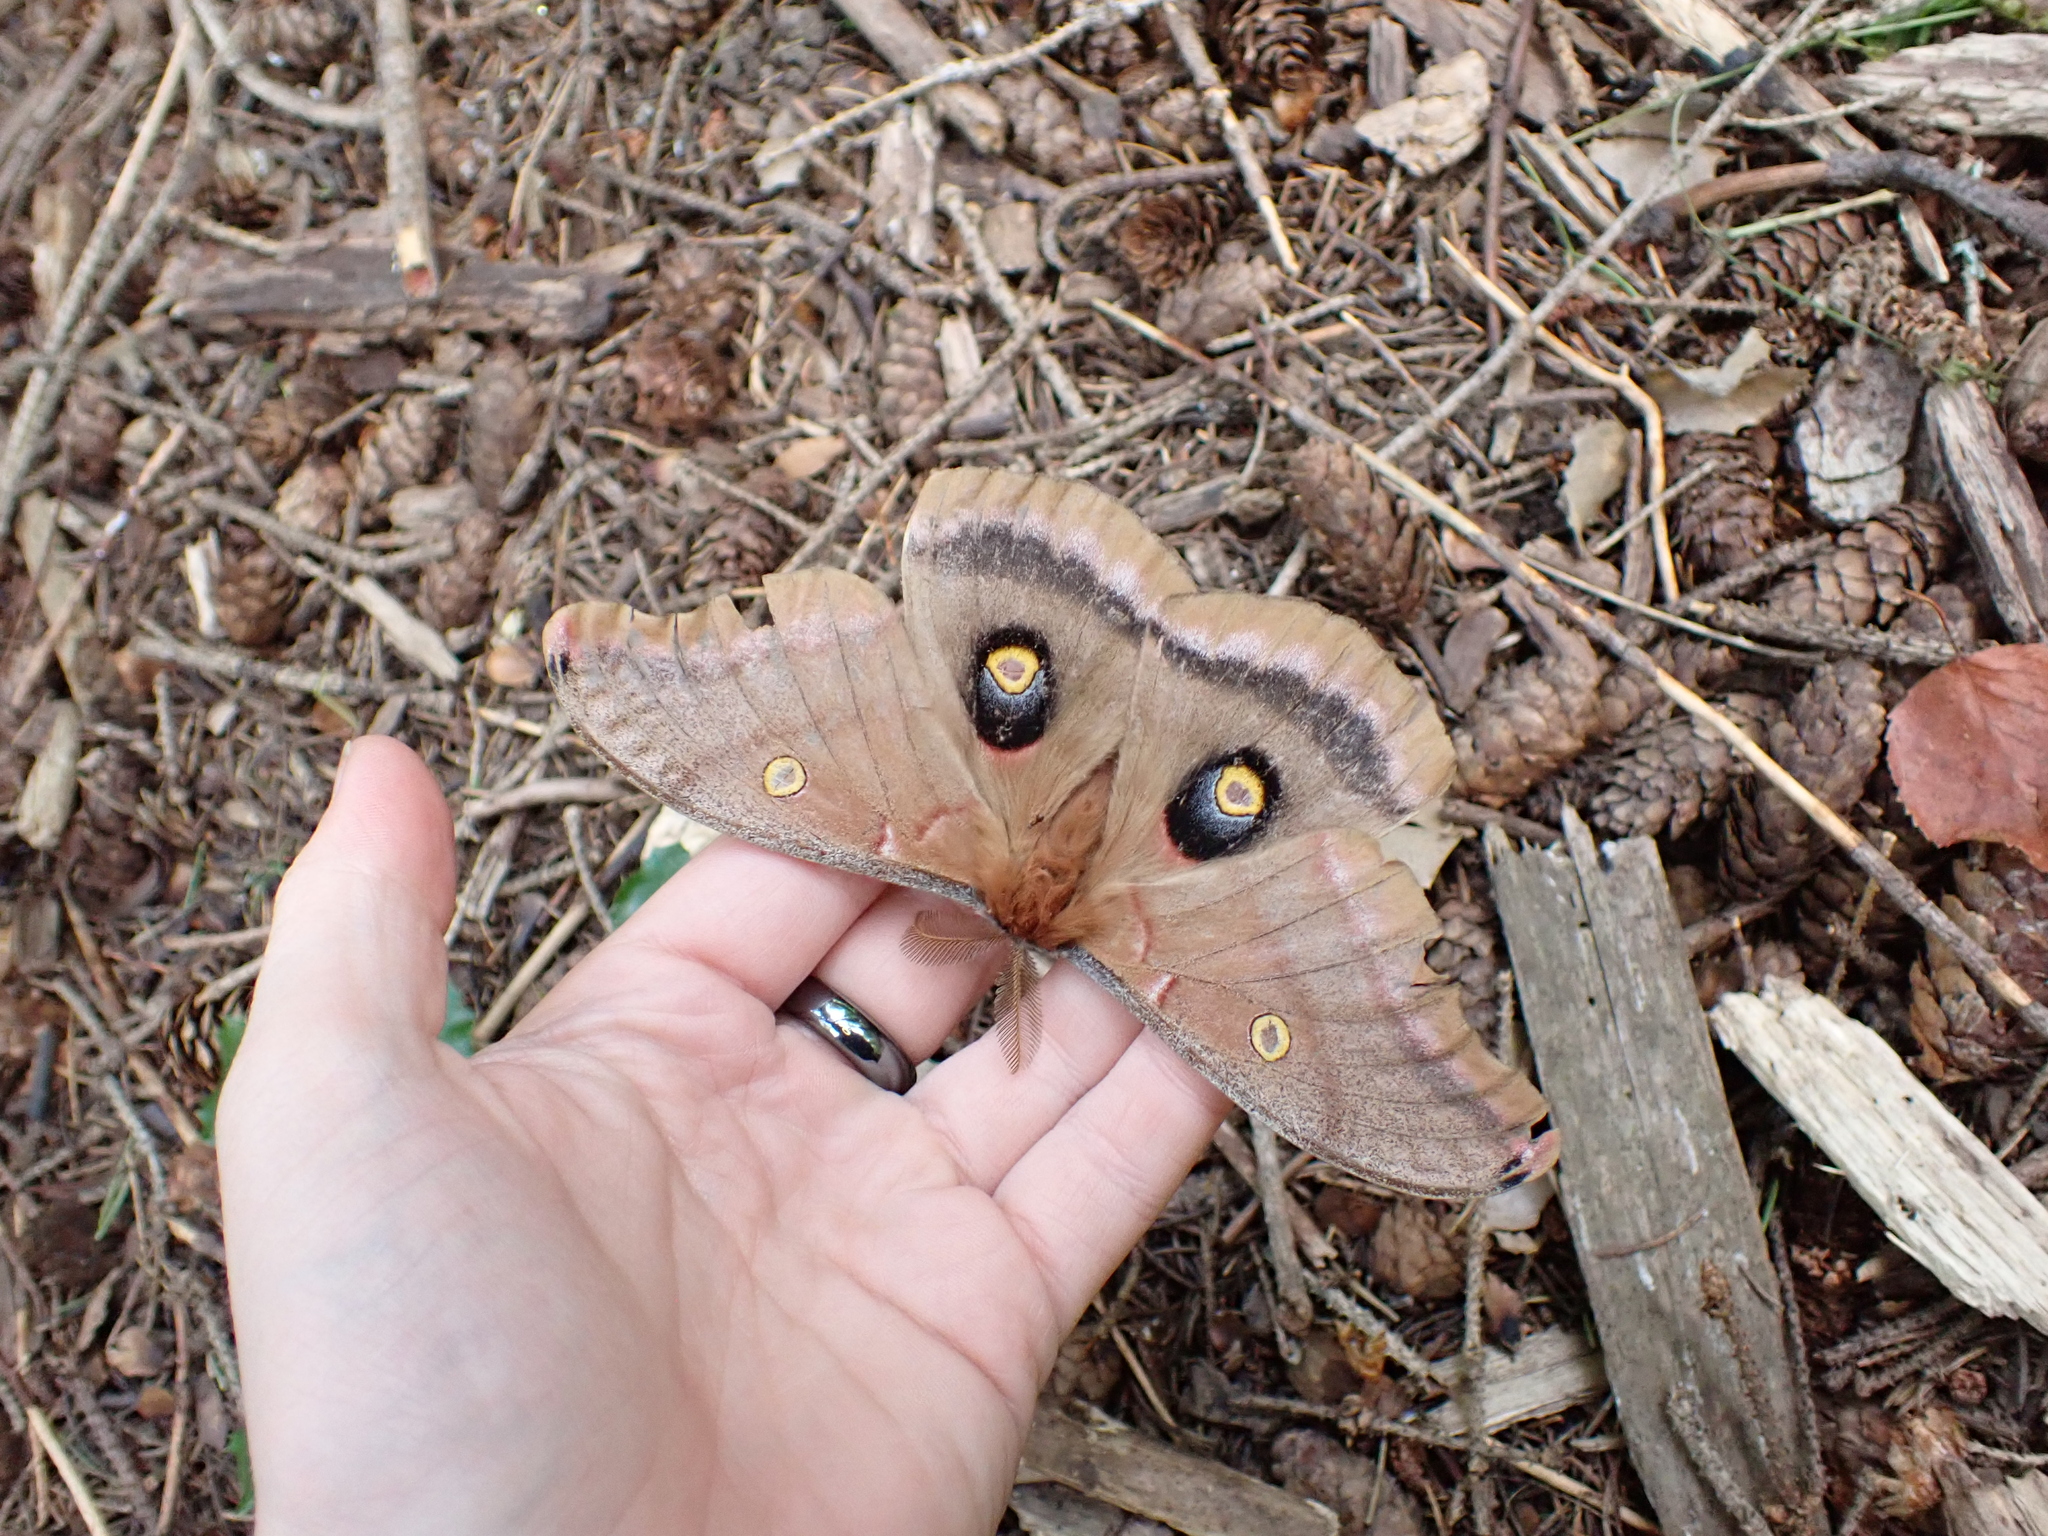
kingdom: Animalia
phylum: Arthropoda
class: Insecta
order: Lepidoptera
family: Saturniidae
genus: Antheraea
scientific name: Antheraea polyphemus
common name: Polyphemus moth
